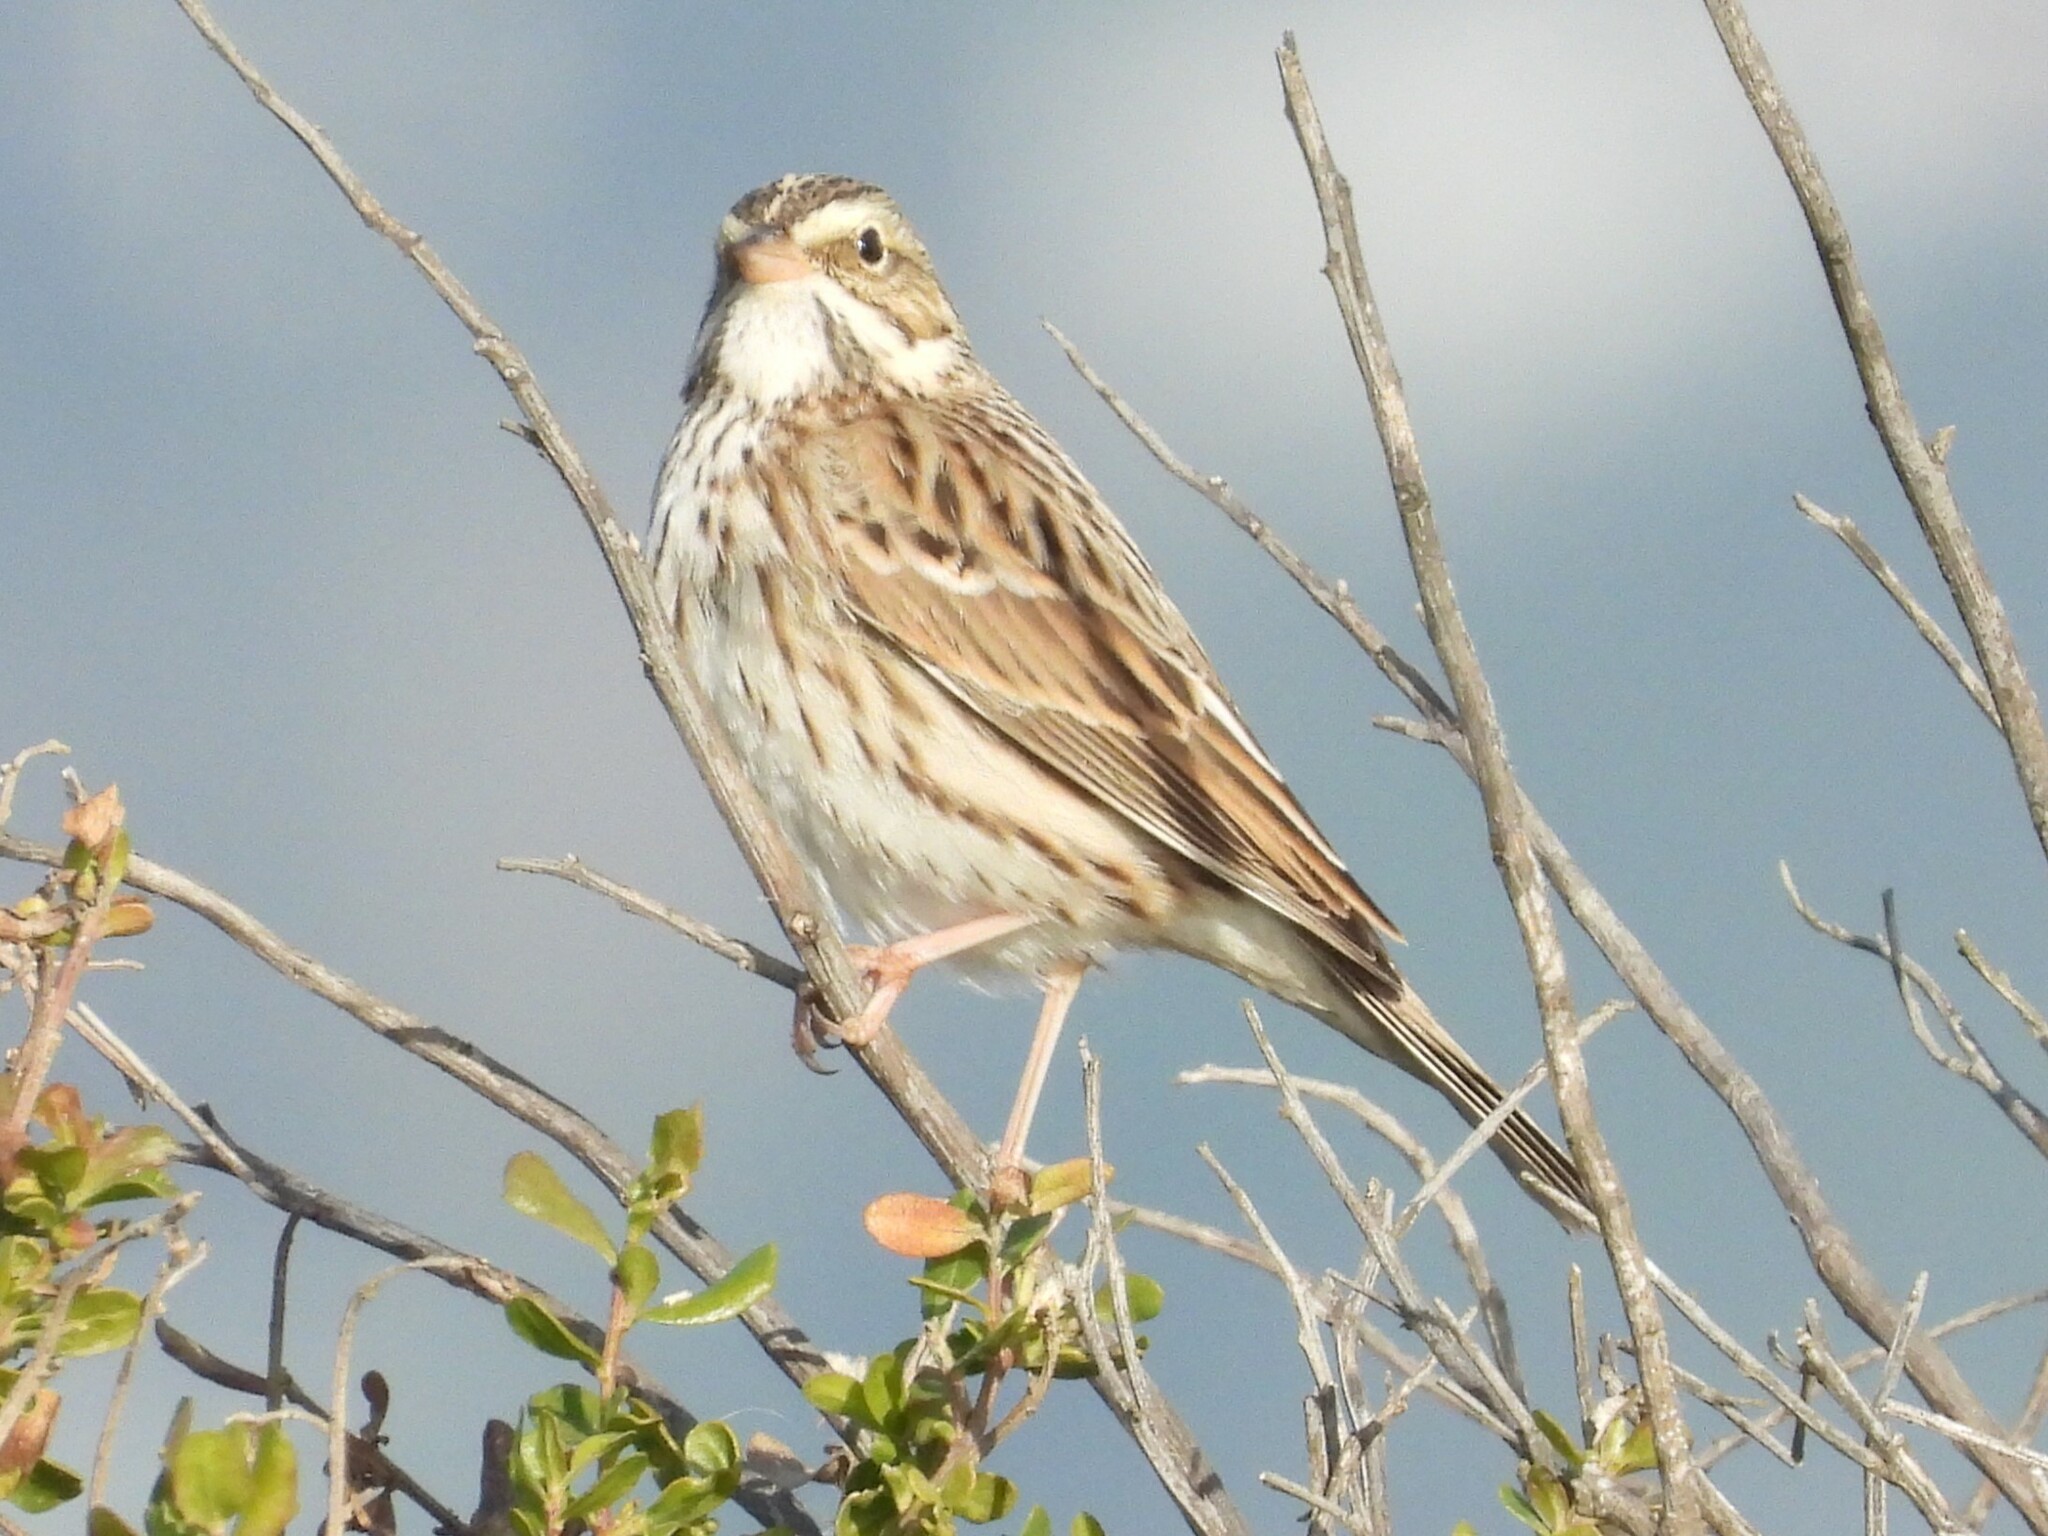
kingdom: Animalia
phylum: Chordata
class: Aves
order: Passeriformes
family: Passerellidae
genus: Passerculus
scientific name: Passerculus sandwichensis
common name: Savannah sparrow
